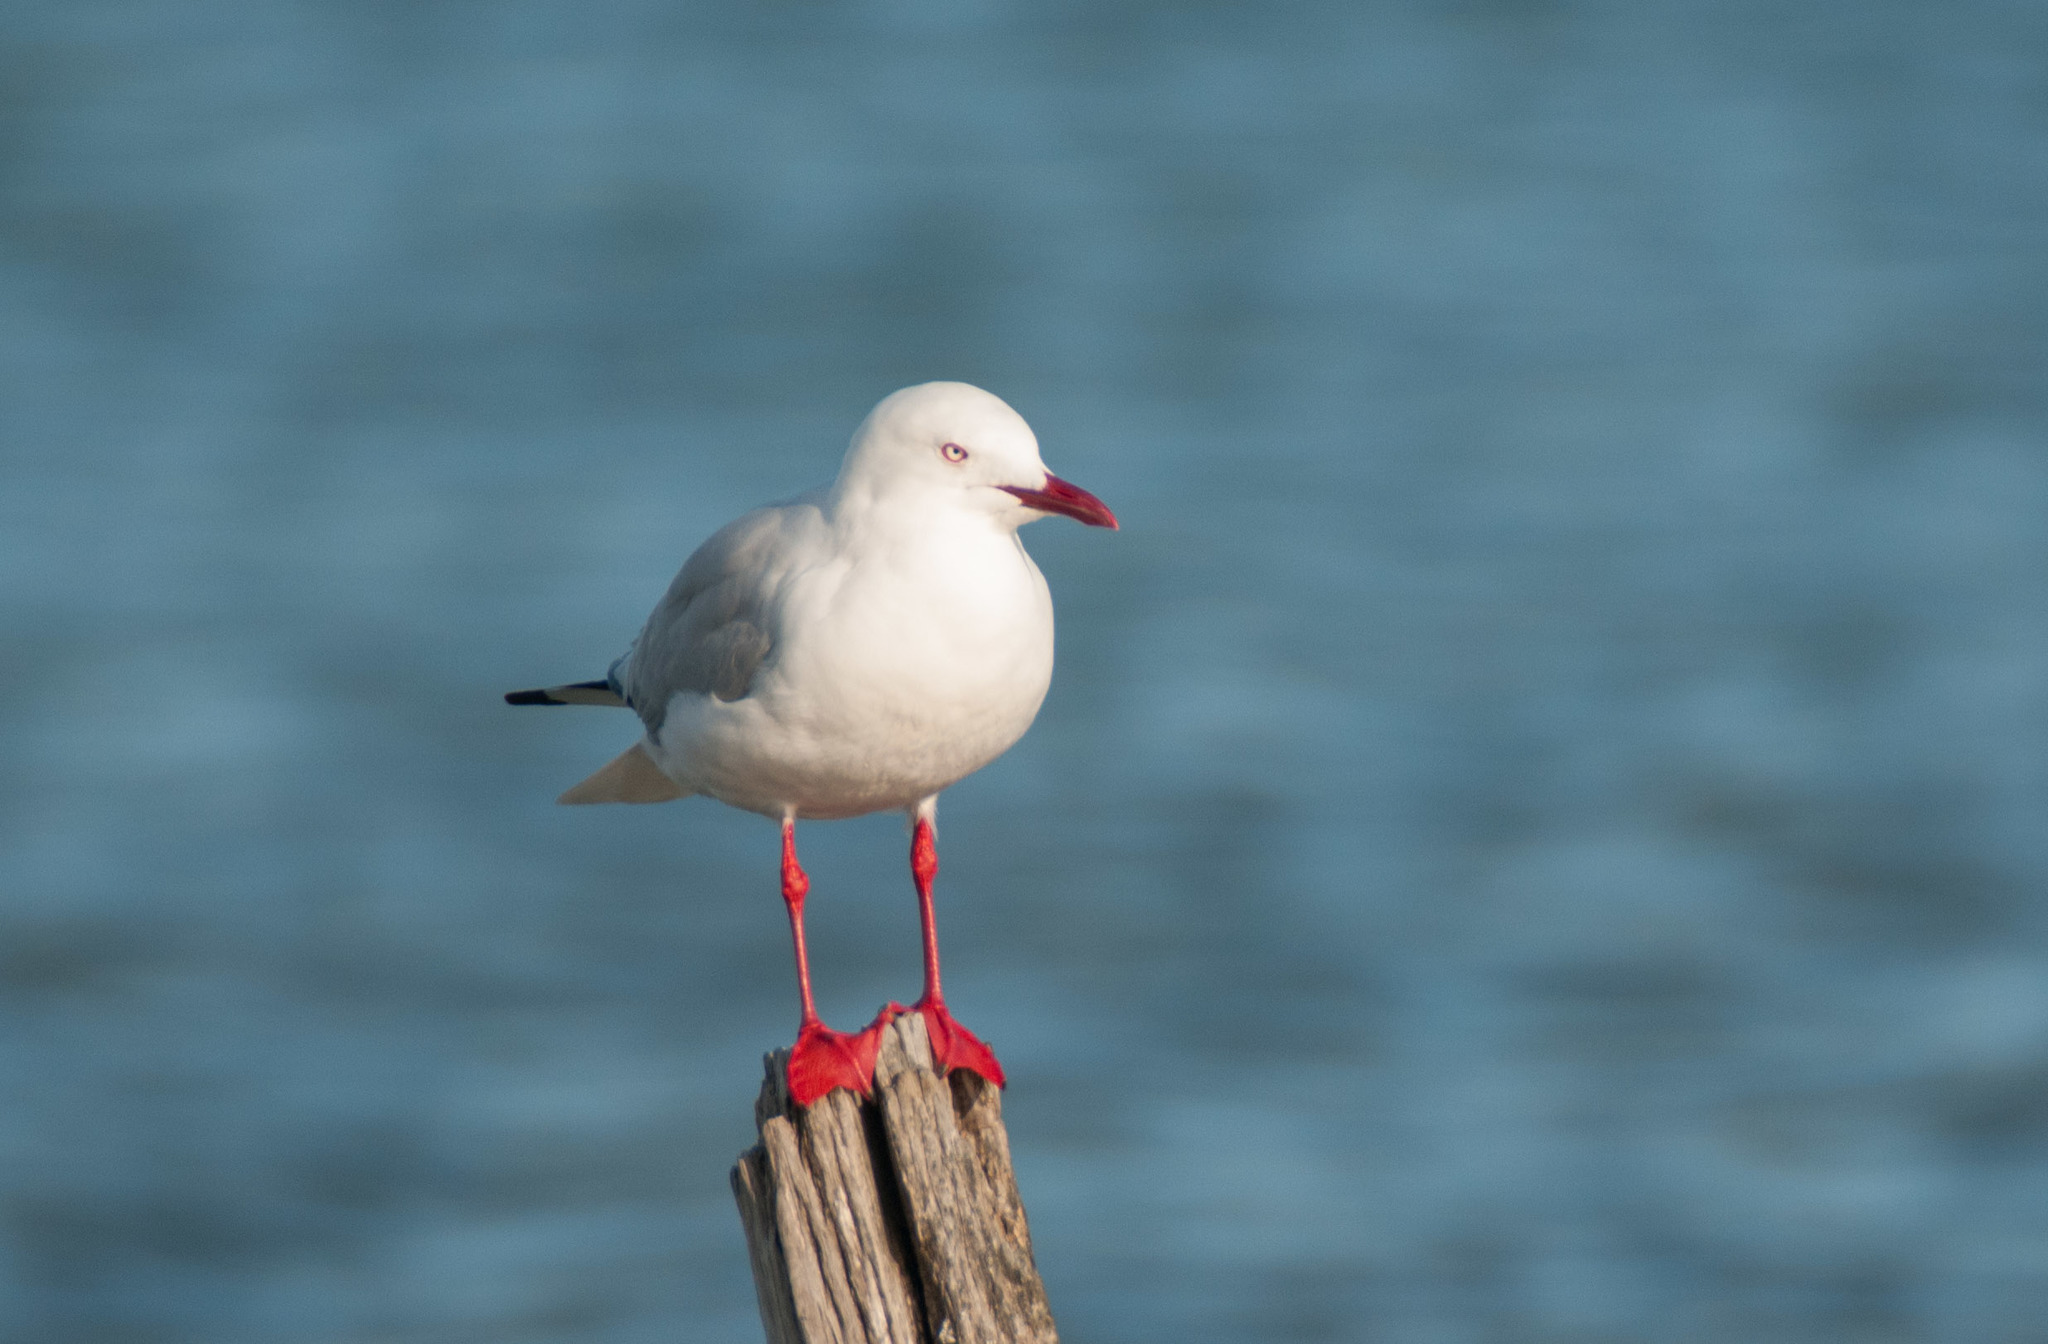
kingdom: Animalia
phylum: Chordata
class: Aves
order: Charadriiformes
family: Laridae
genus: Chroicocephalus
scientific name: Chroicocephalus novaehollandiae
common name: Silver gull
